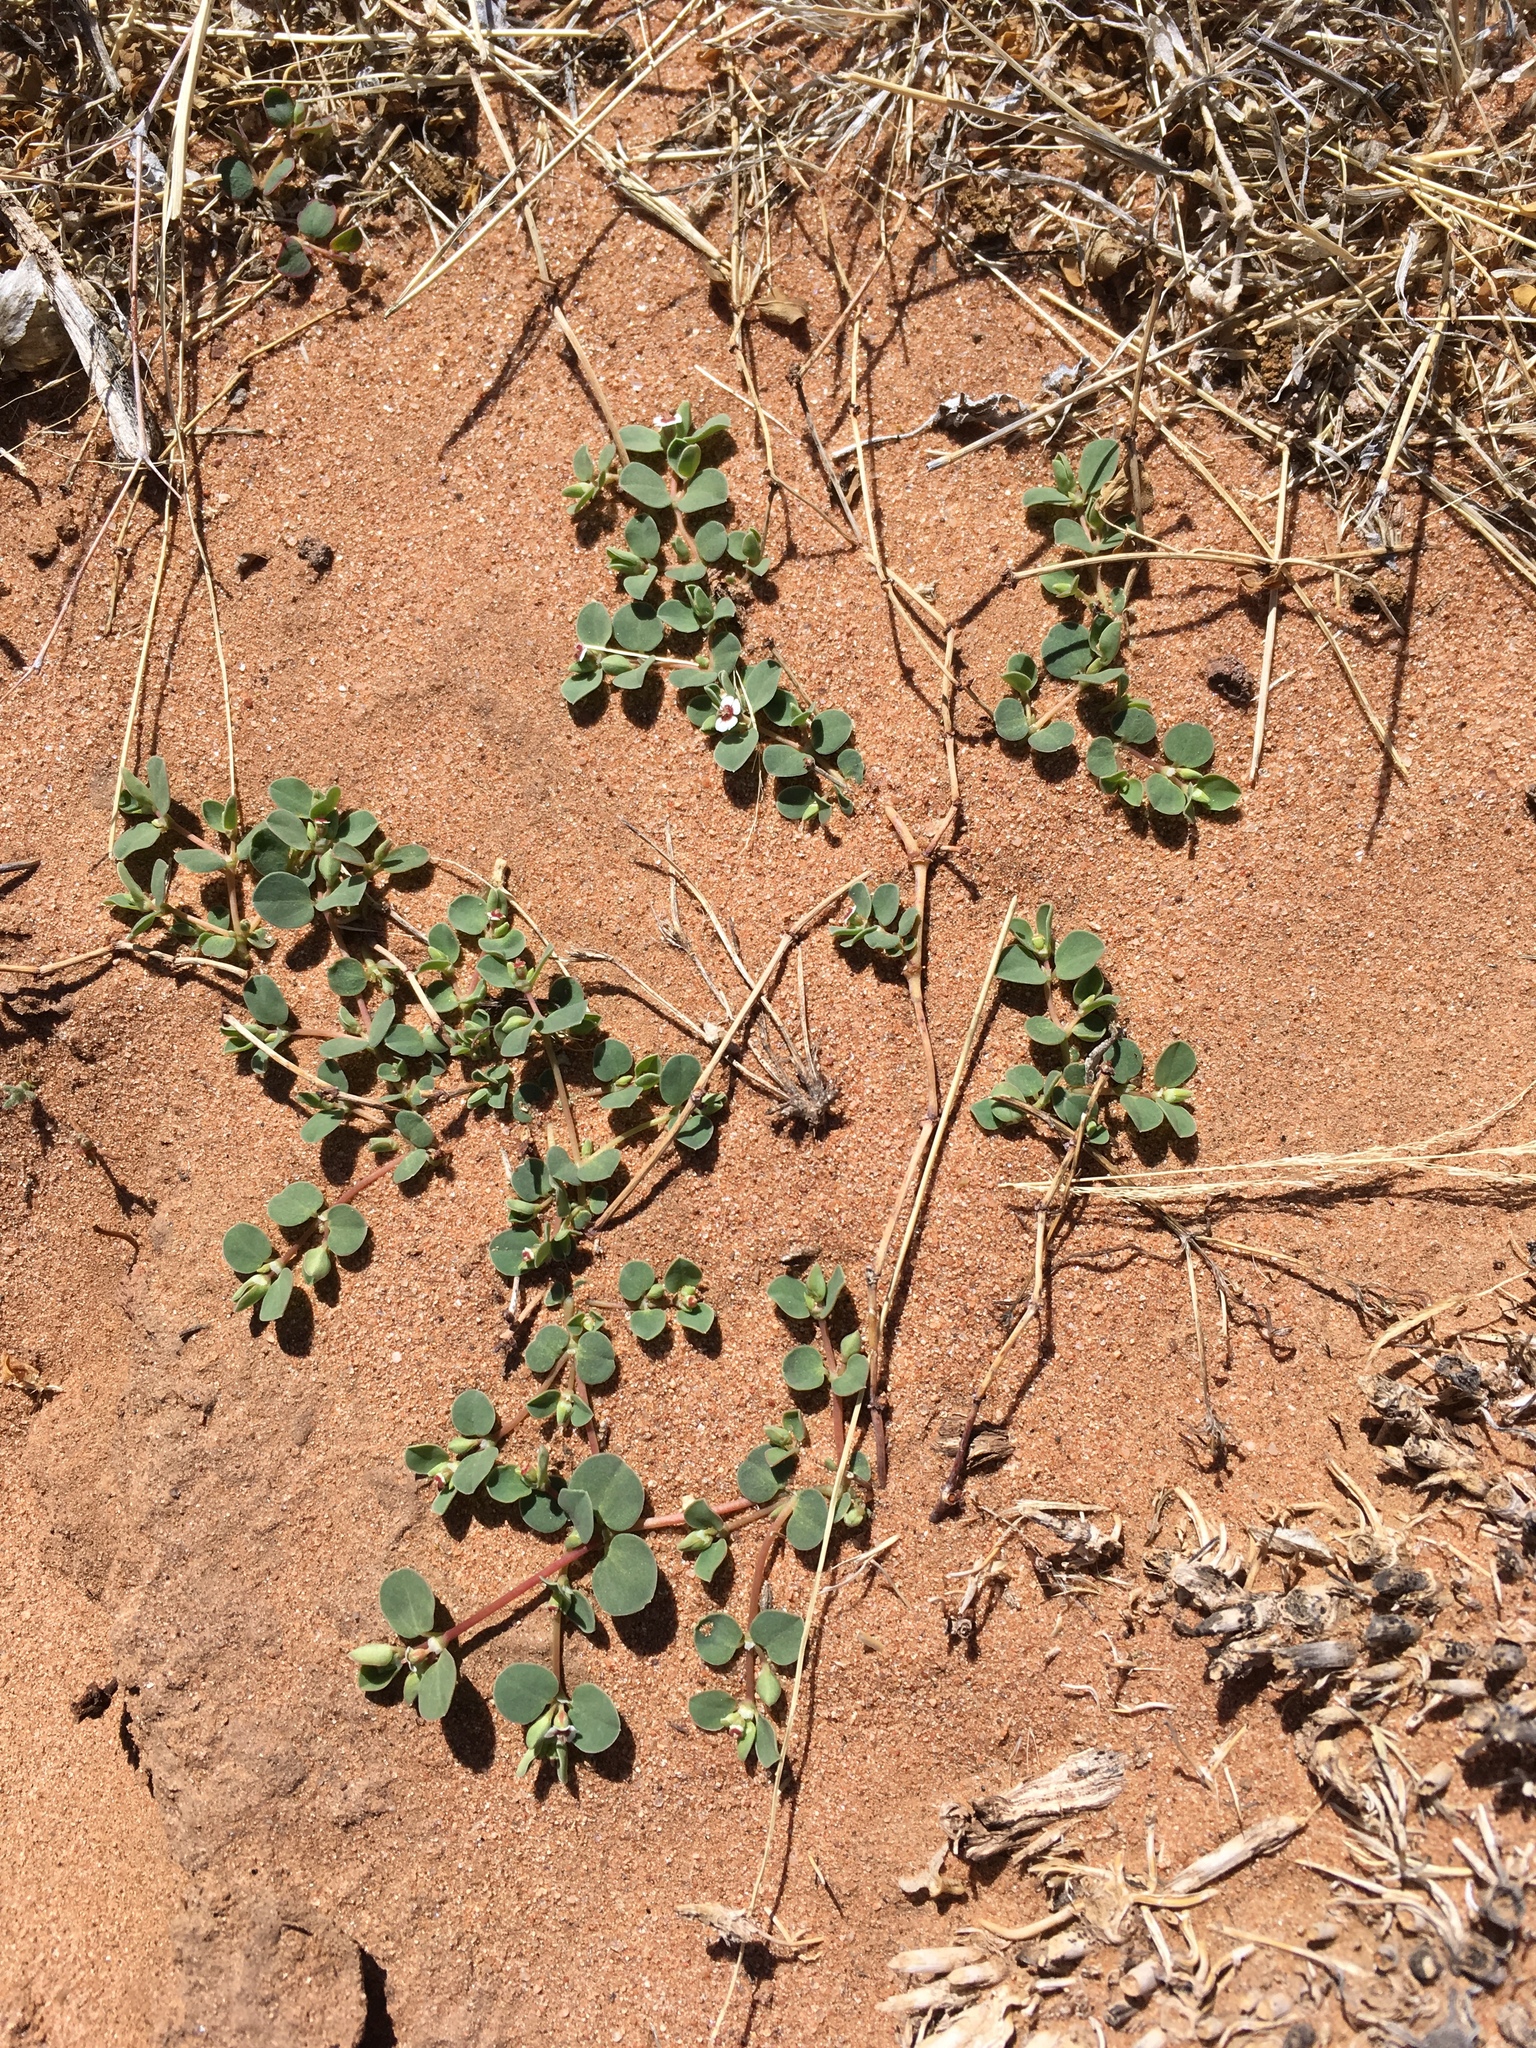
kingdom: Plantae
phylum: Tracheophyta
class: Magnoliopsida
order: Malpighiales
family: Euphorbiaceae
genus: Euphorbia
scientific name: Euphorbia albomarginata
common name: Whitemargin sandmat
